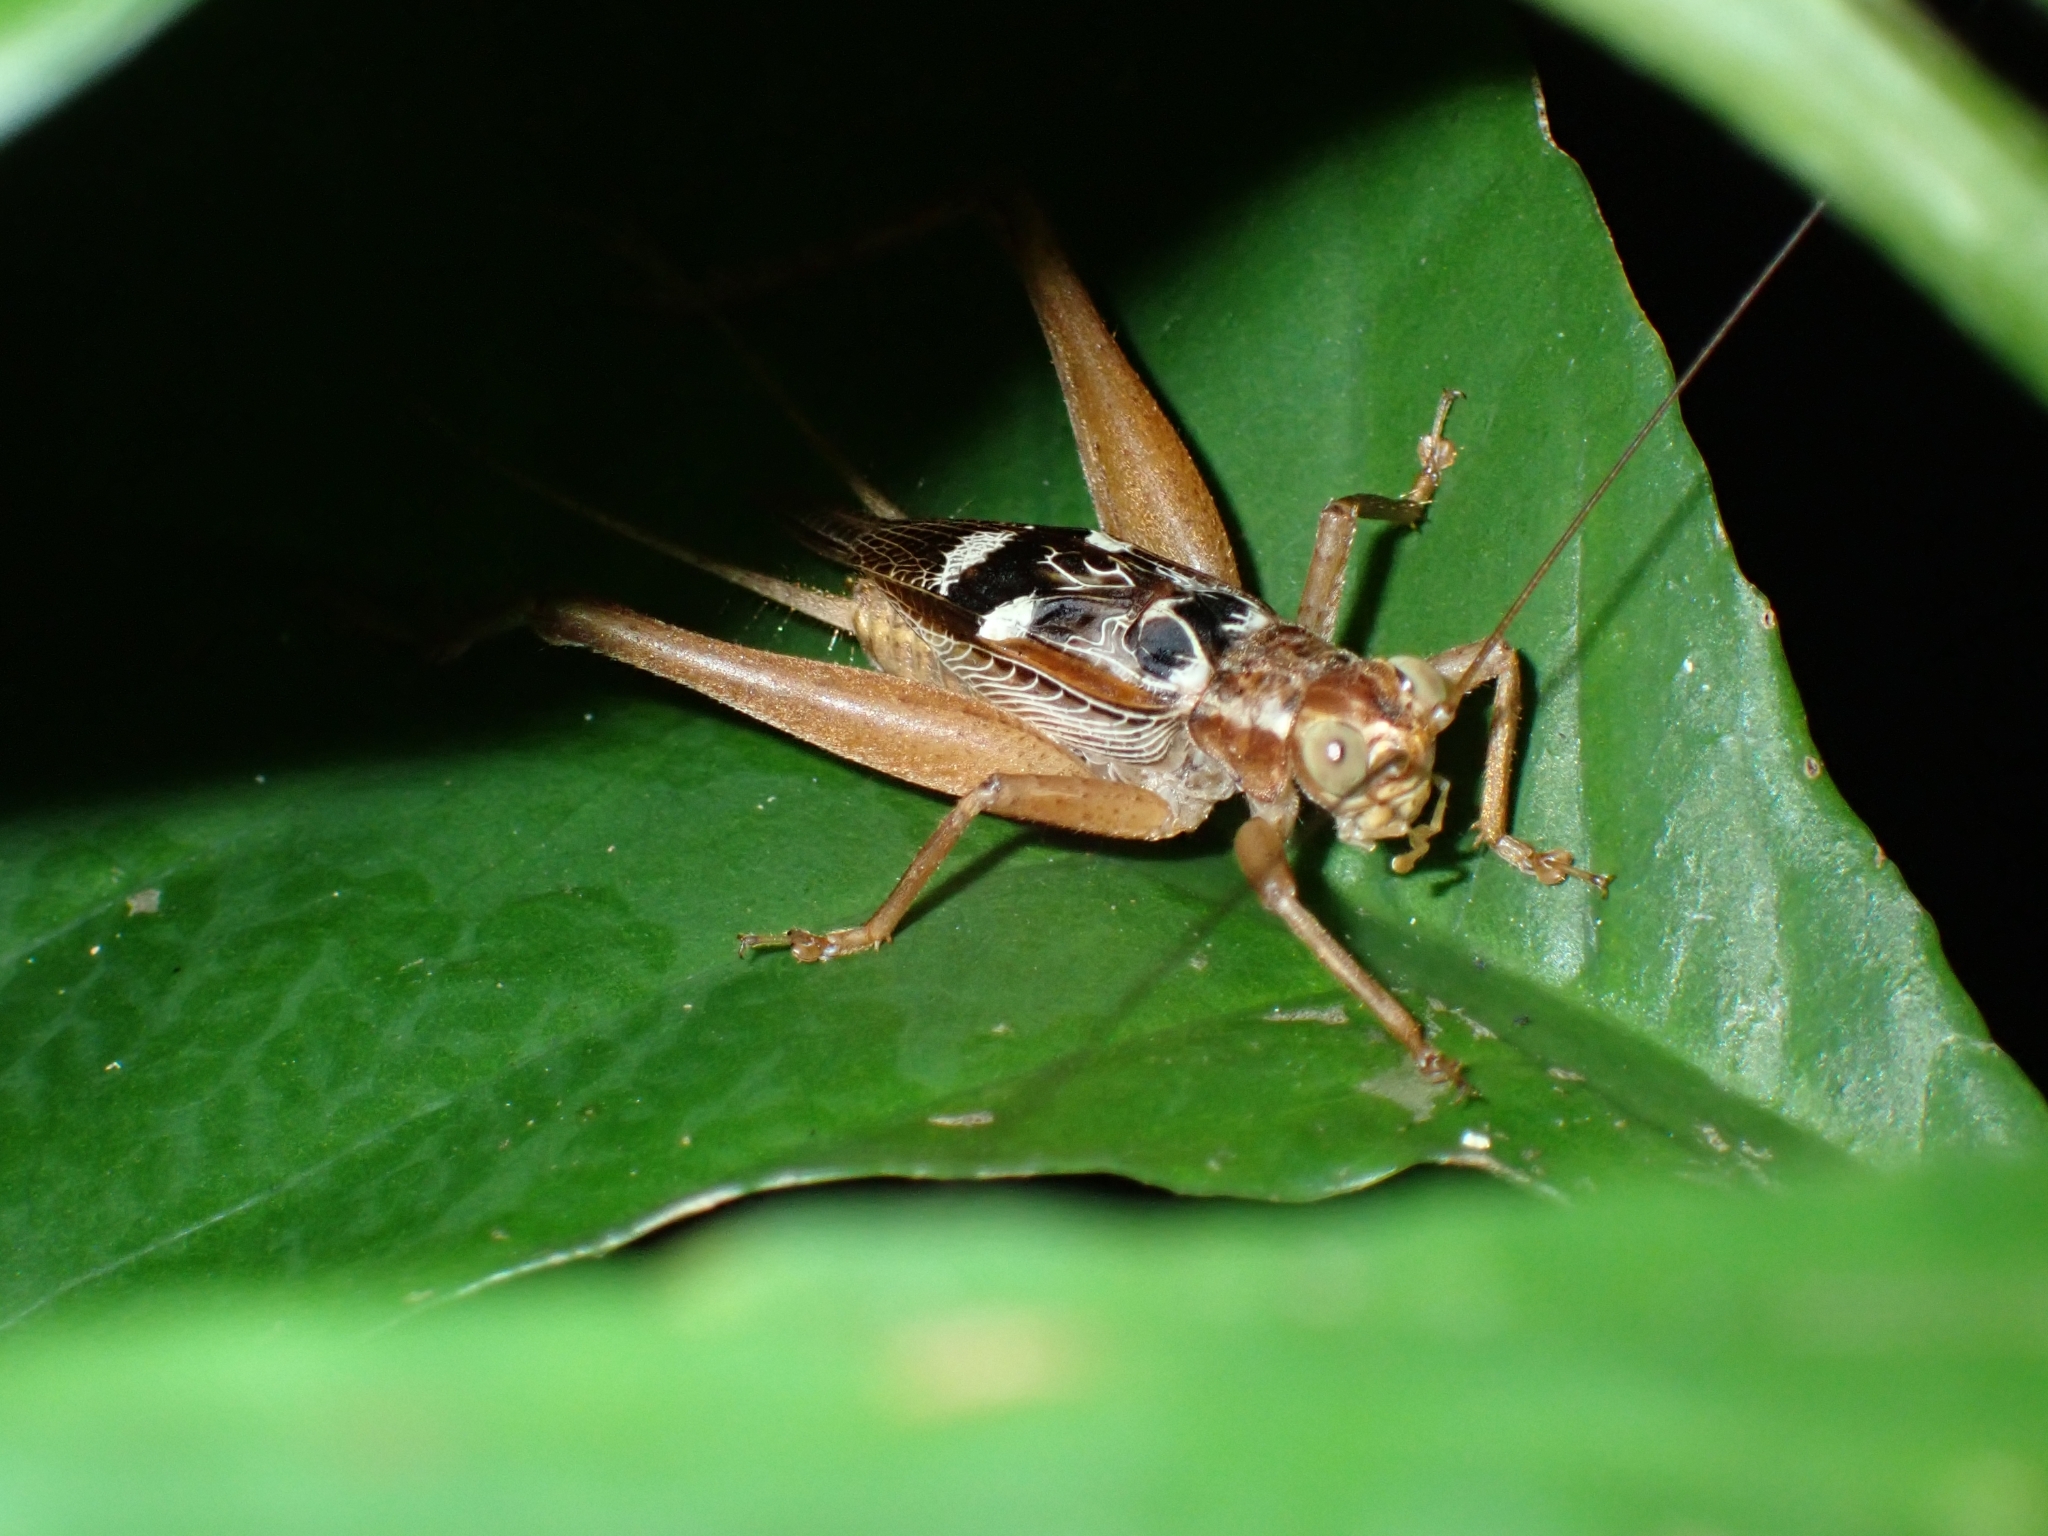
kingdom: Animalia
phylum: Arthropoda
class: Insecta
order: Orthoptera
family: Gryllidae
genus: Cardiodactylus
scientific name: Cardiodactylus novaeguineae
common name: Sad cricket
